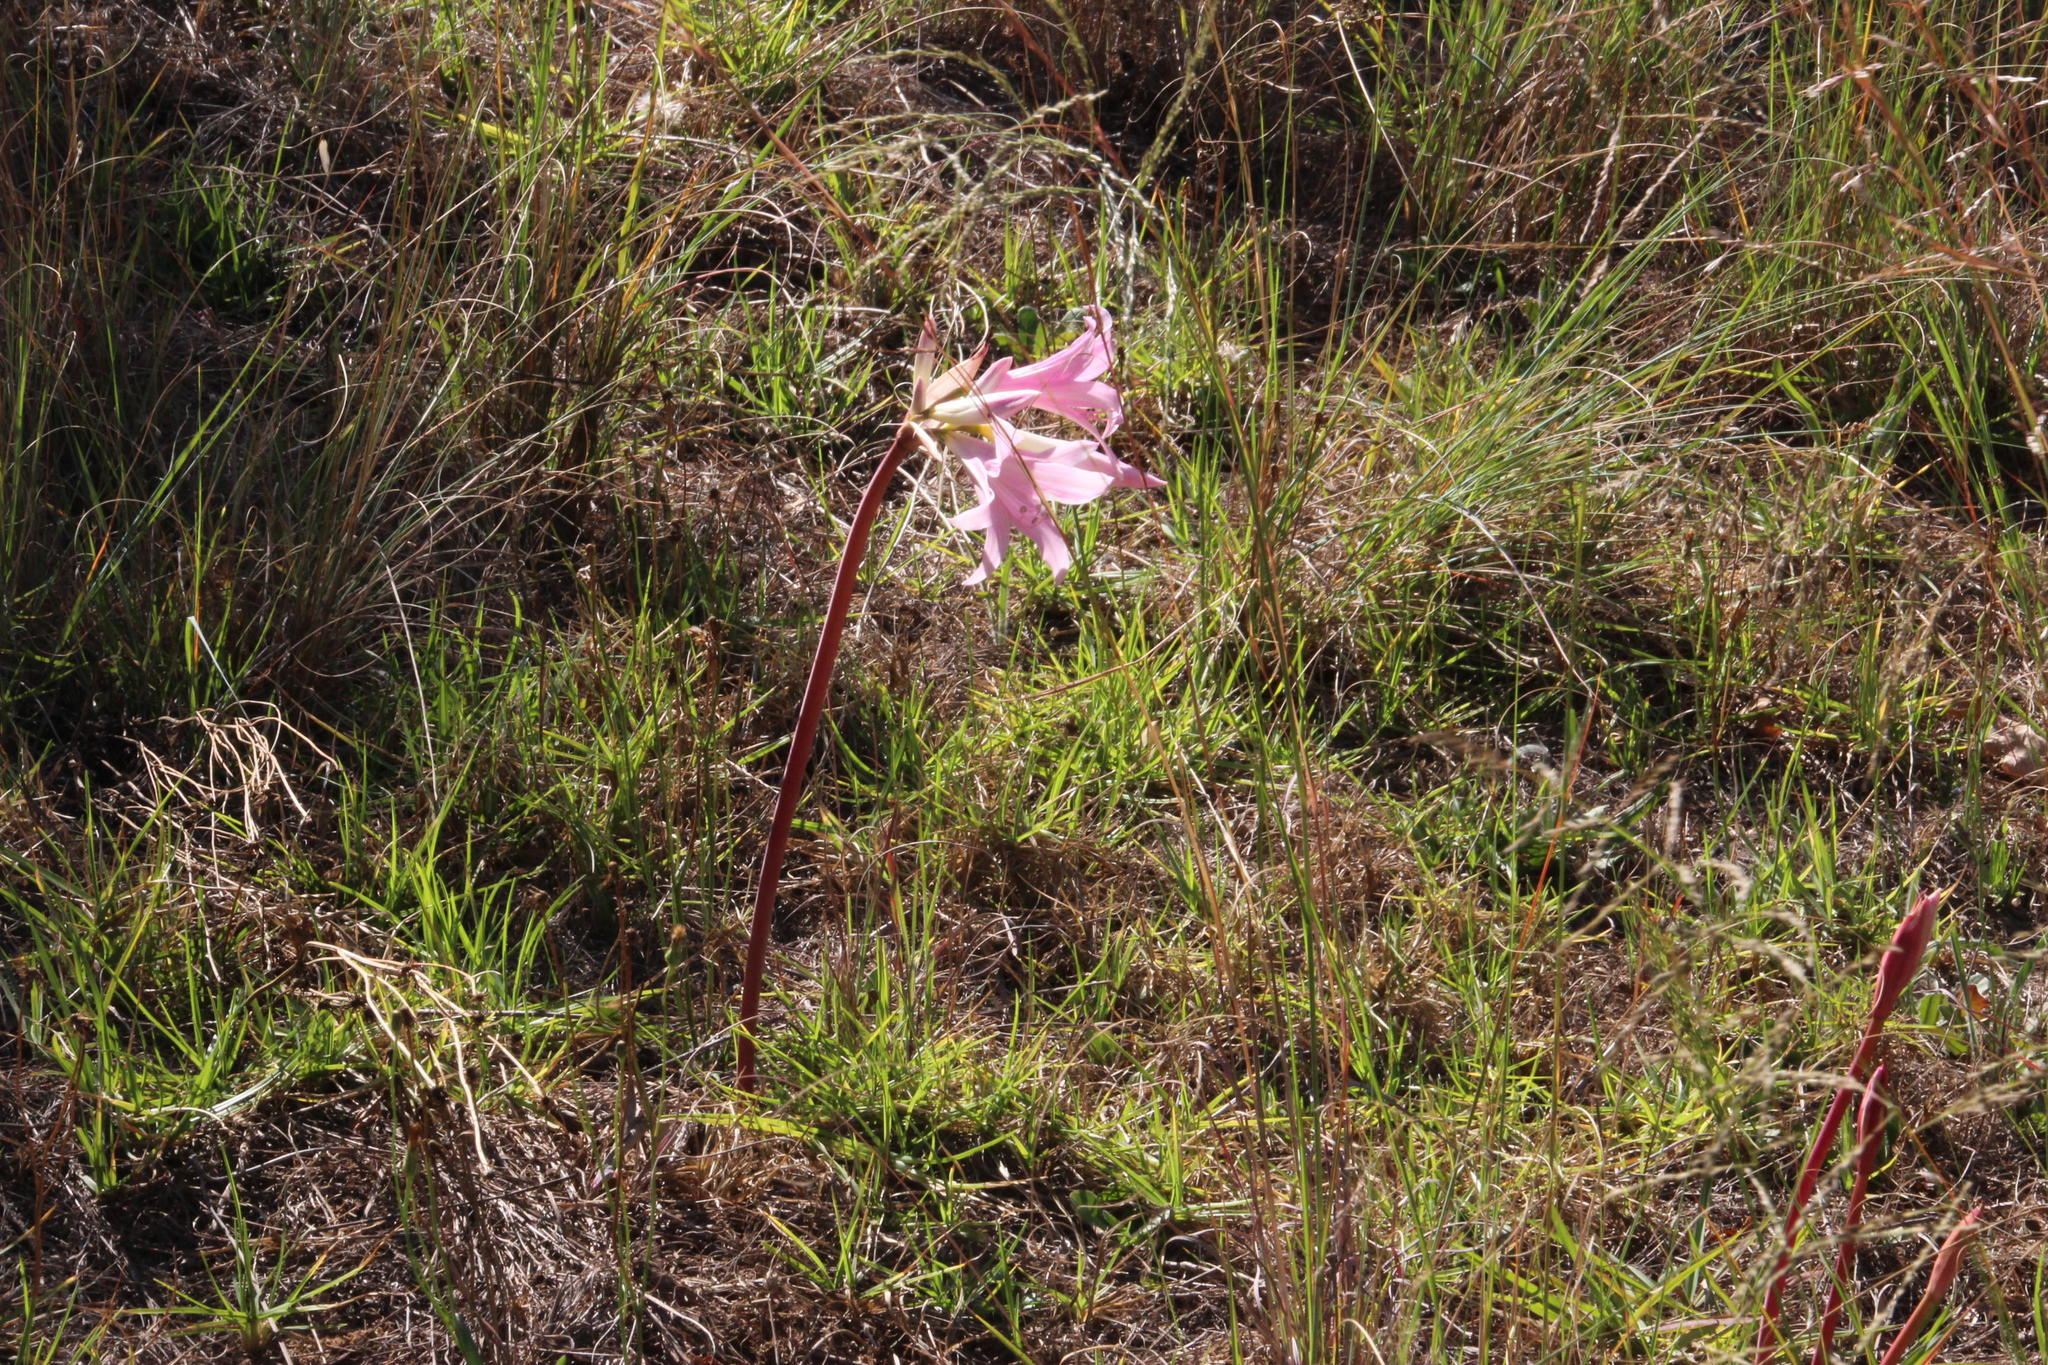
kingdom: Plantae
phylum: Tracheophyta
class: Liliopsida
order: Asparagales
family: Amaryllidaceae
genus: Amaryllis
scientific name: Amaryllis belladonna
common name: Jersey lily
